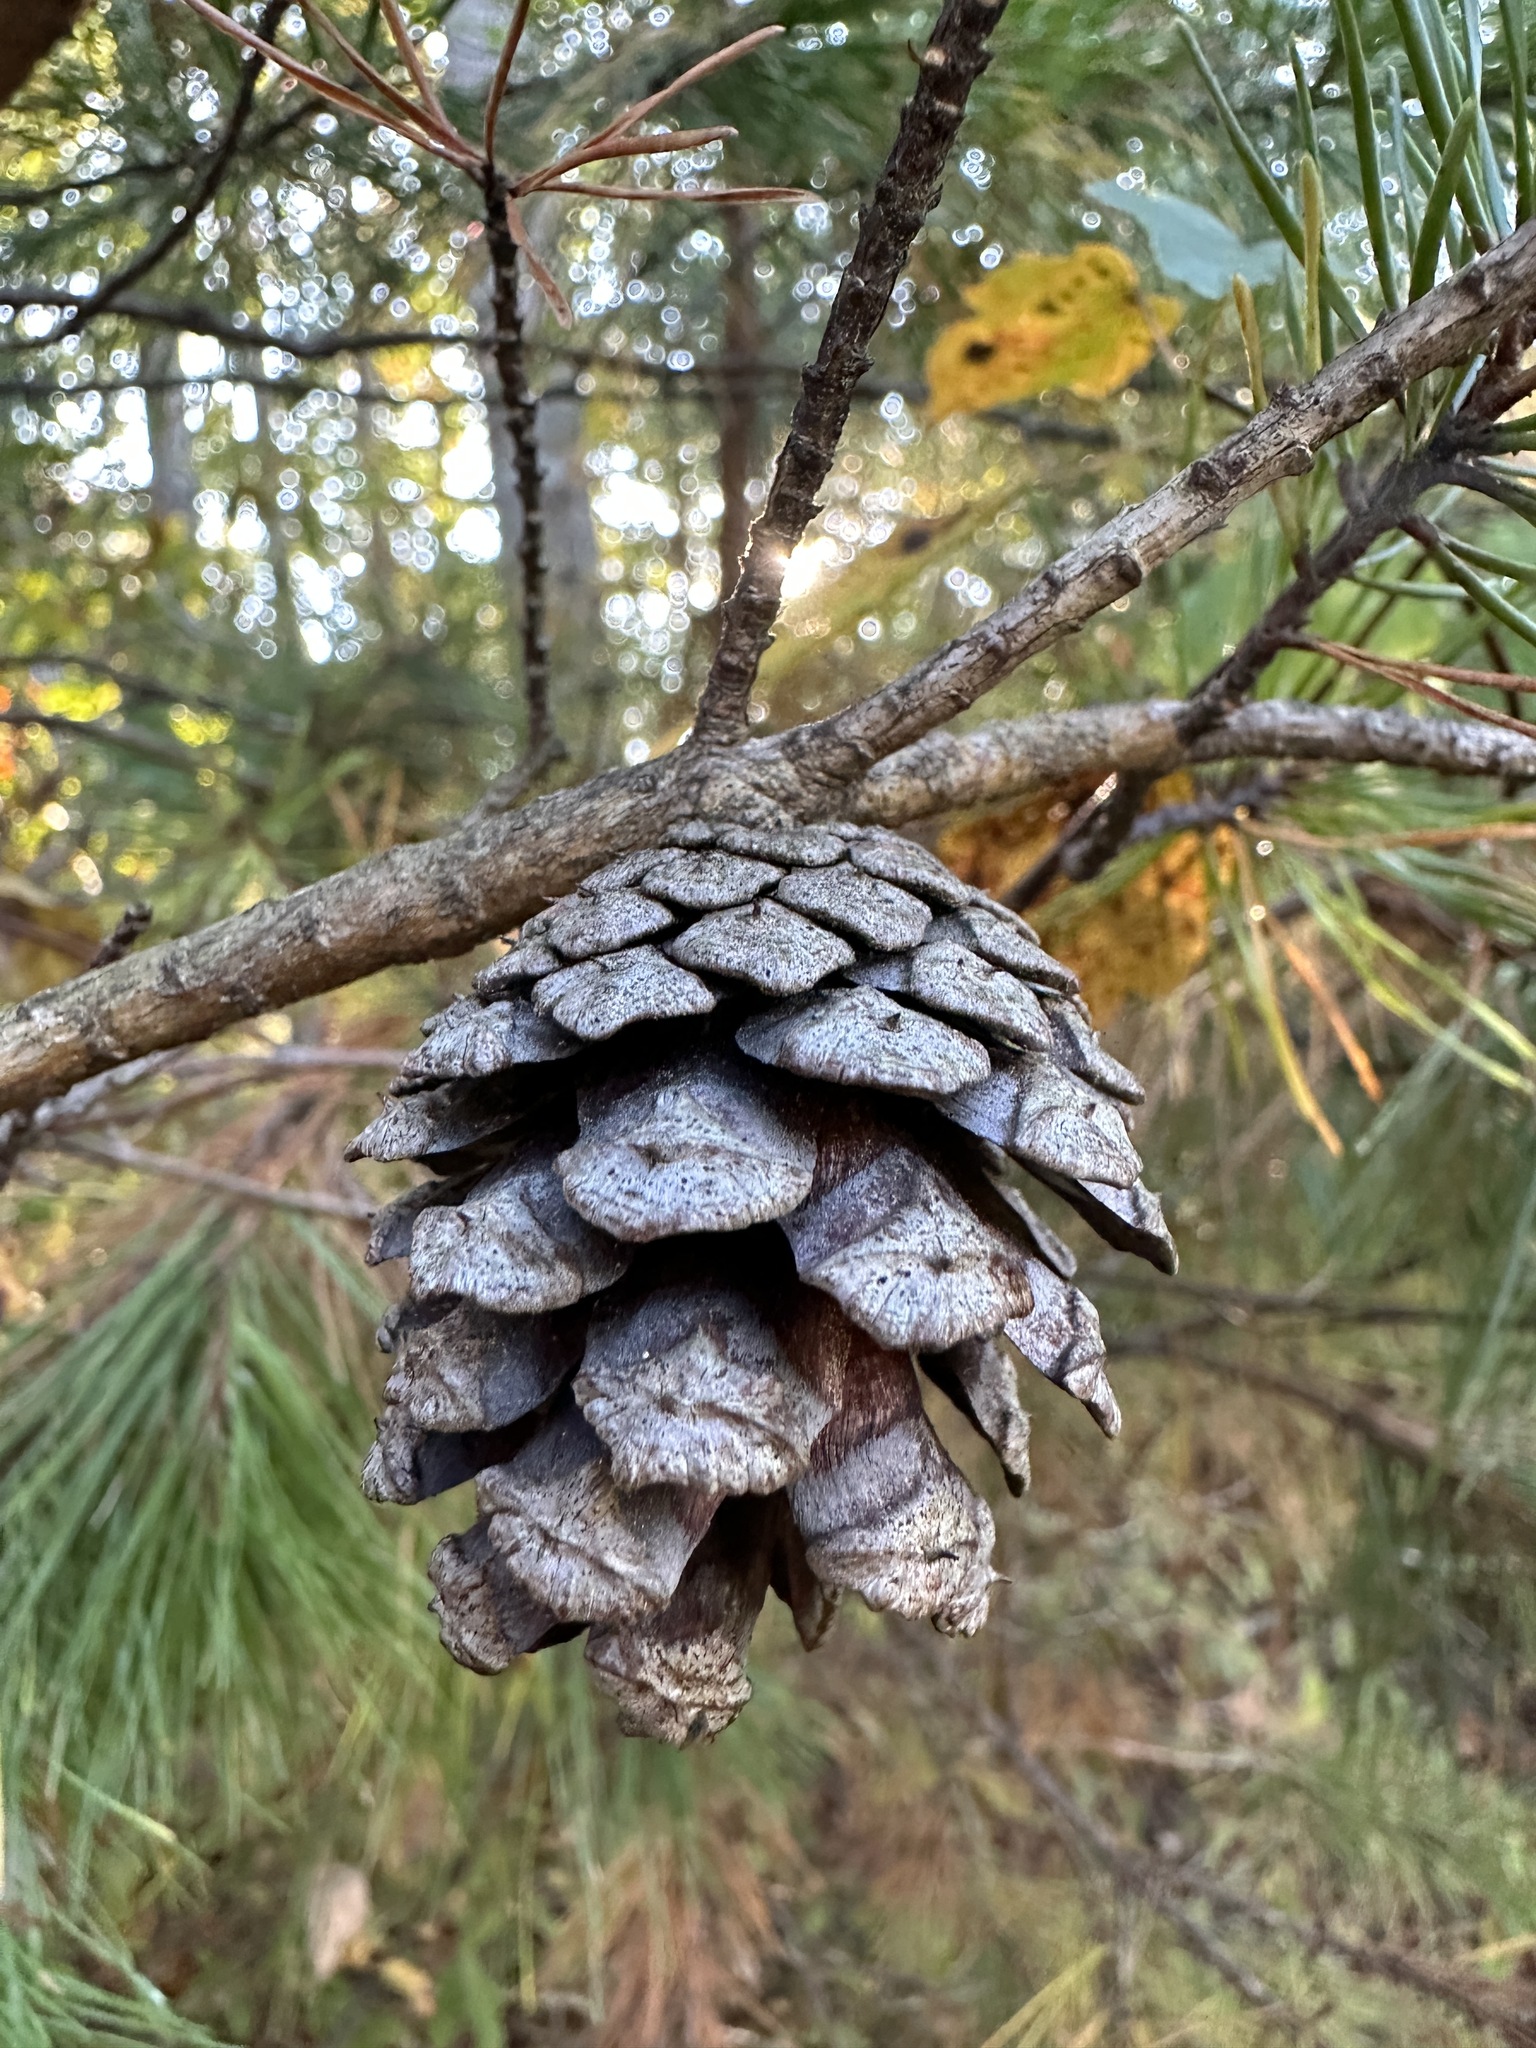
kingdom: Plantae
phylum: Tracheophyta
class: Pinopsida
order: Pinales
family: Pinaceae
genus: Pinus
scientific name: Pinus virginiana
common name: Scrub pine
